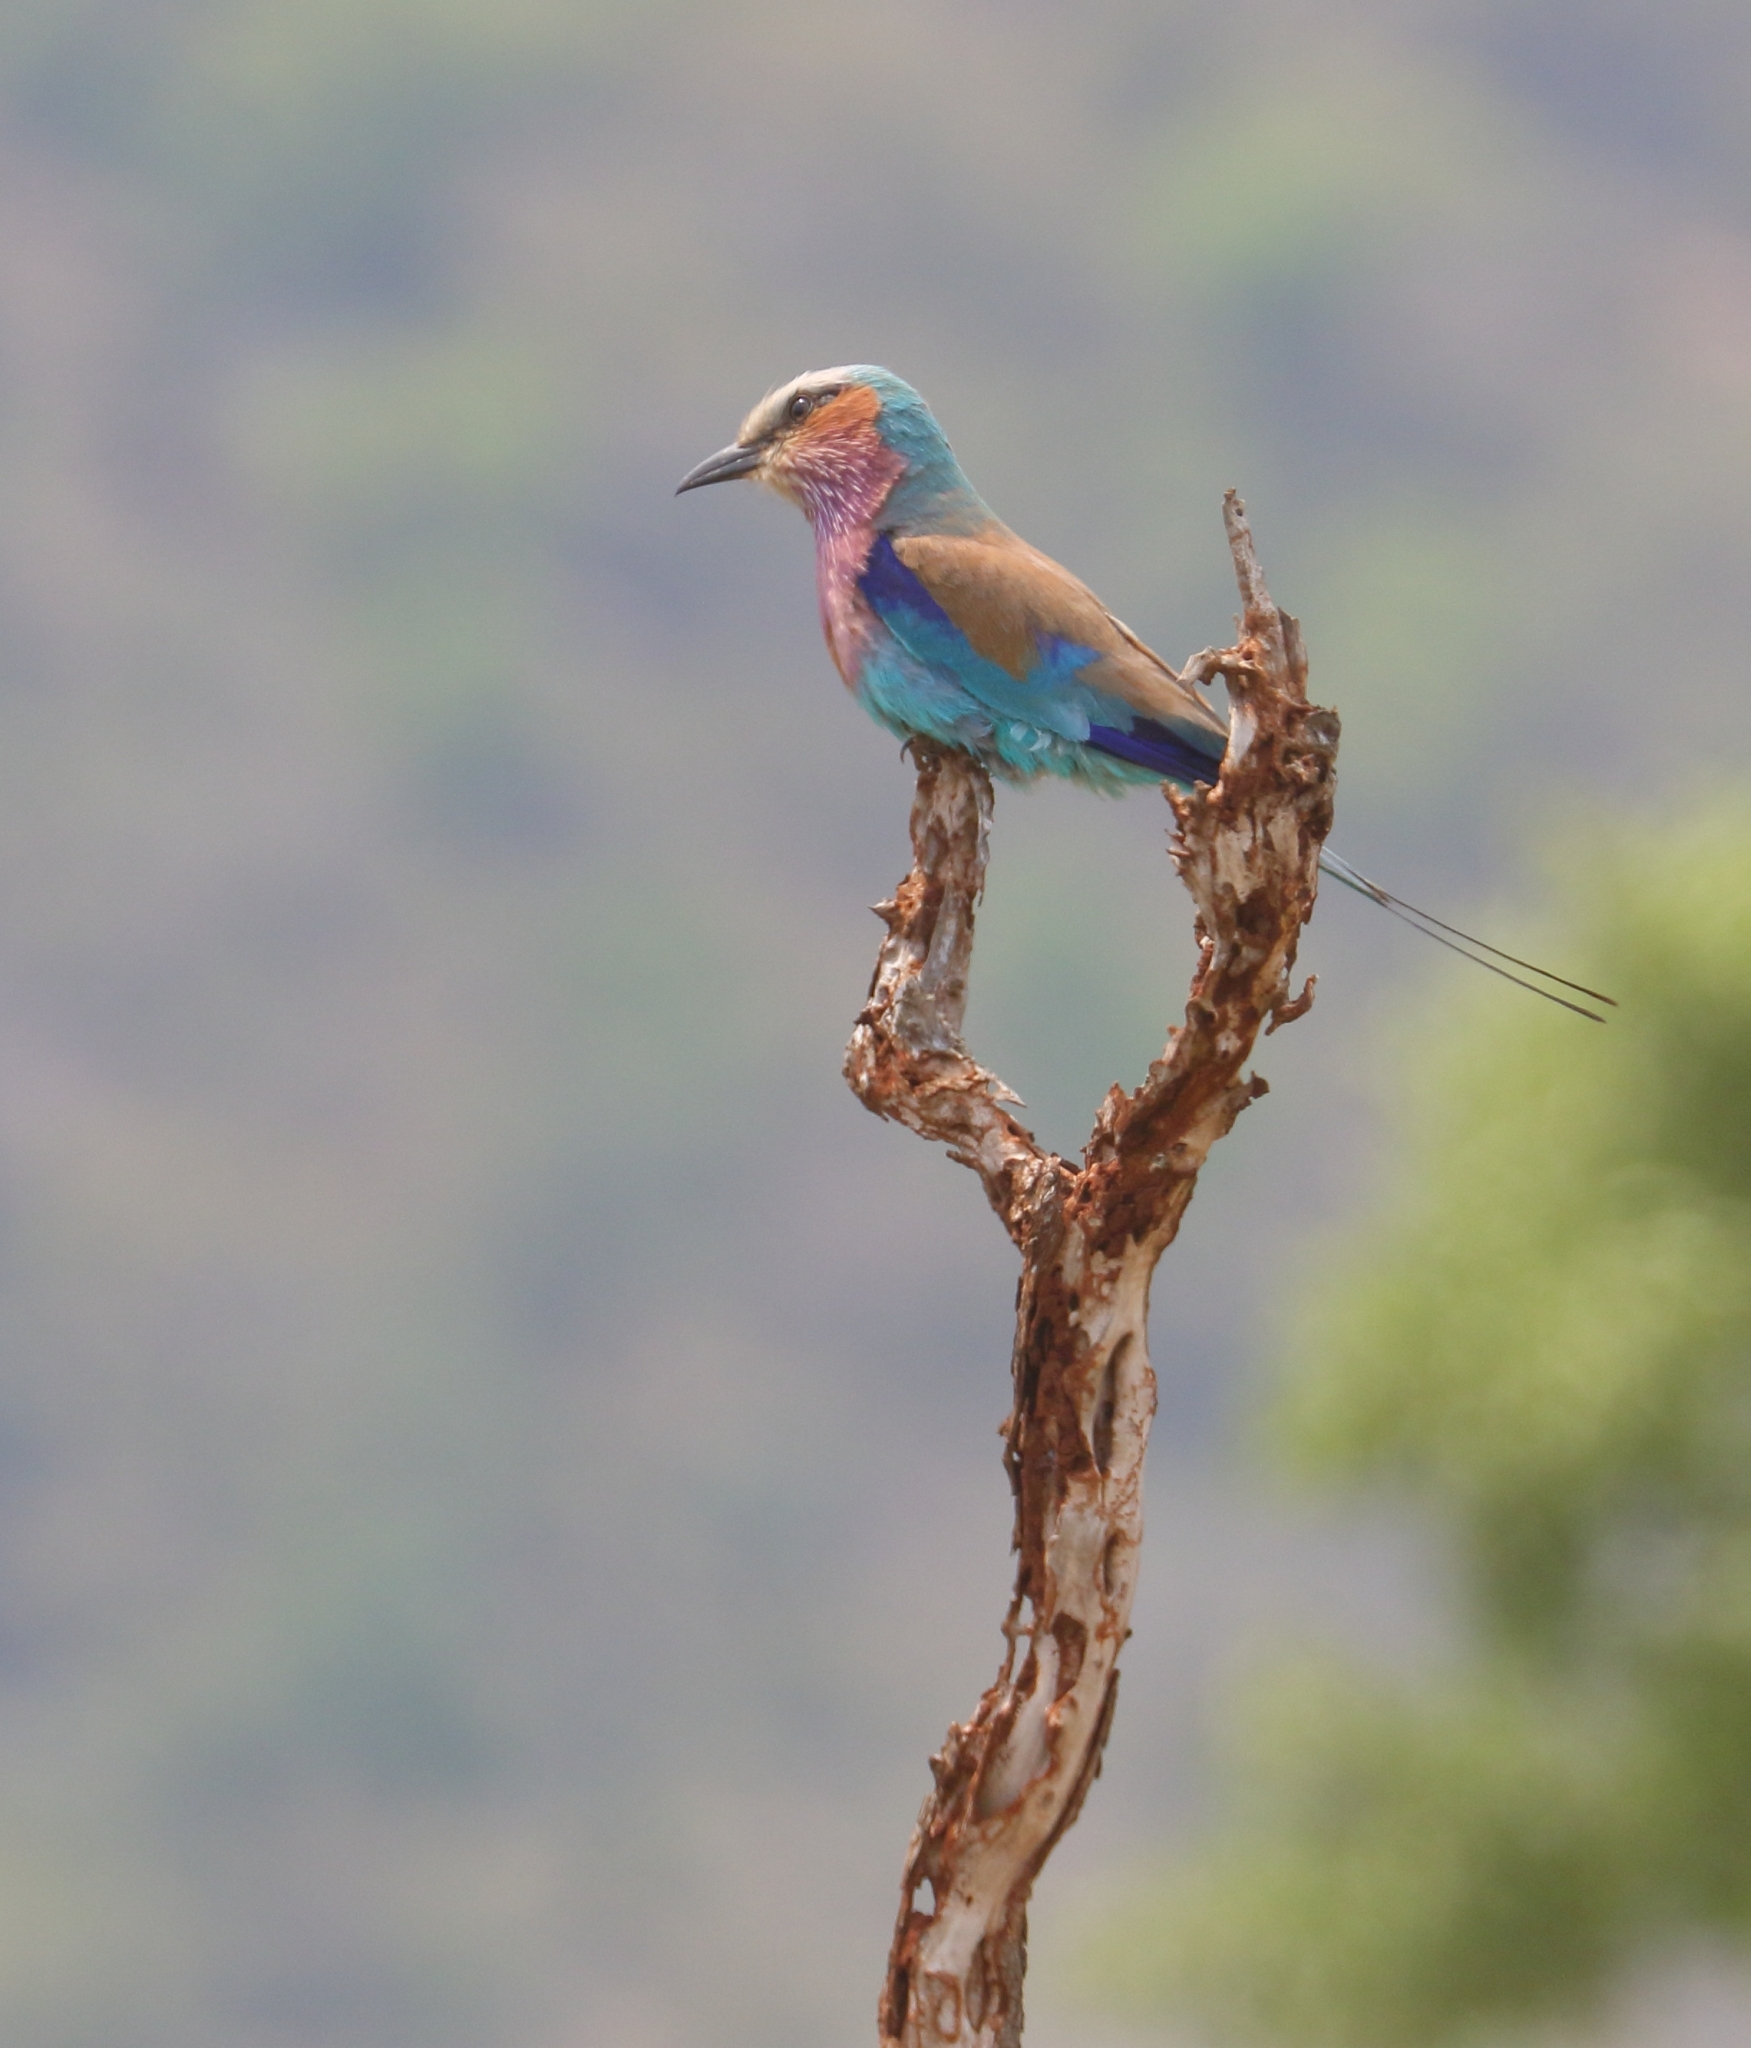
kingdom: Animalia
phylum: Chordata
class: Aves
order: Coraciiformes
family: Coraciidae
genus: Coracias
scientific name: Coracias caudatus
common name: Lilac-breasted roller
